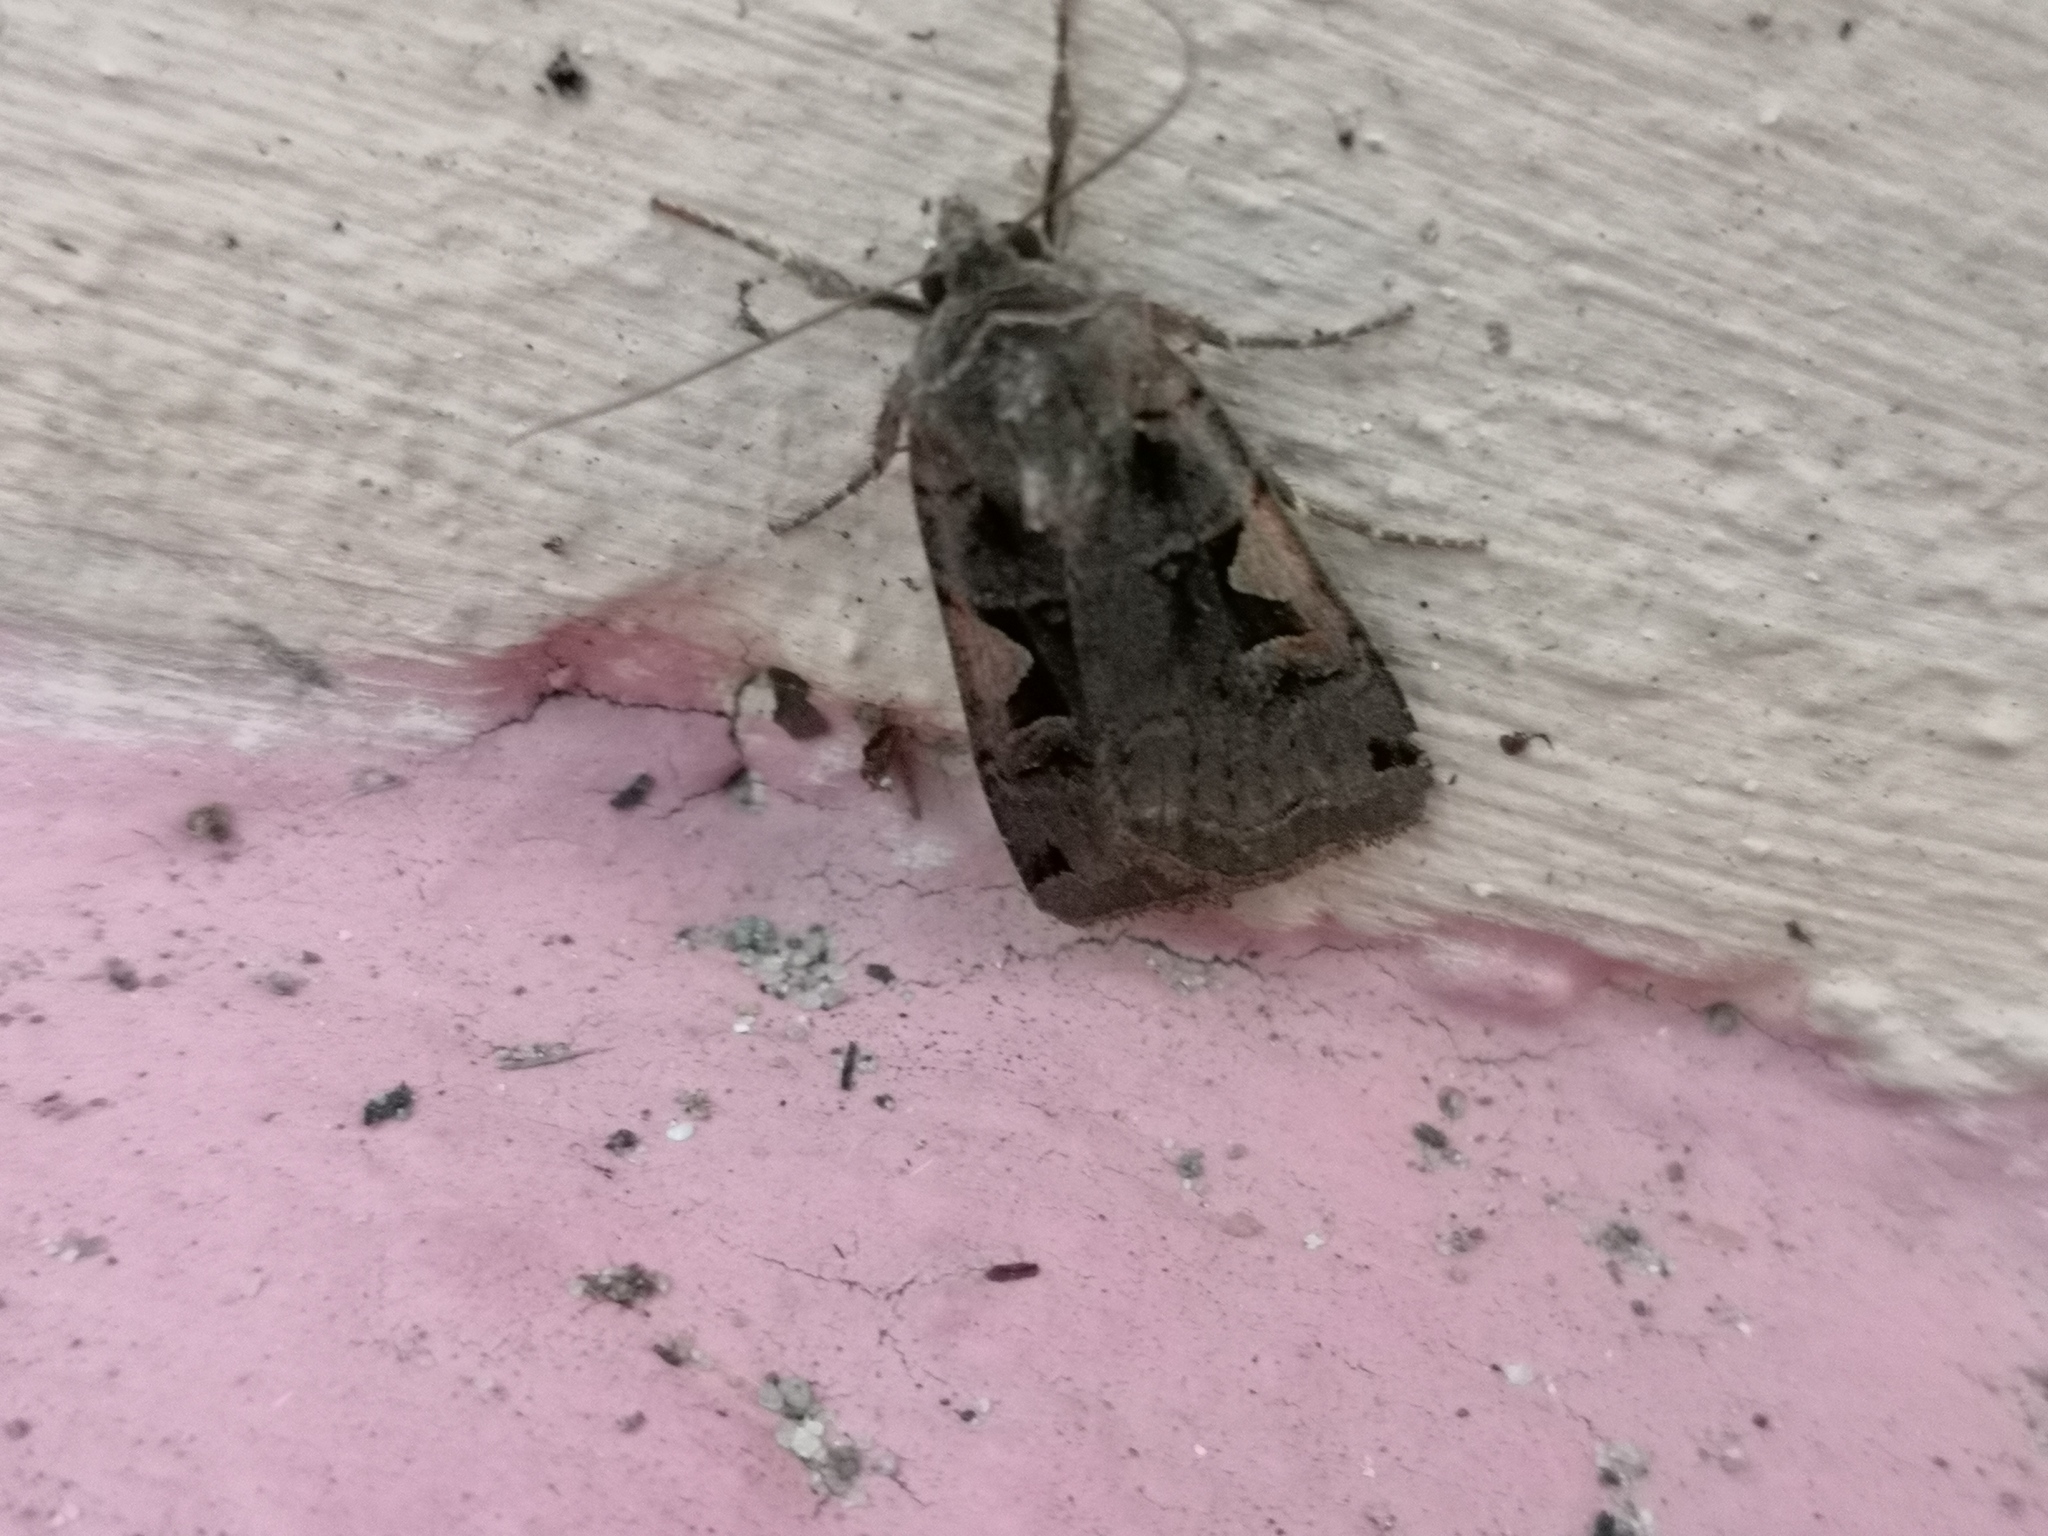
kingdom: Animalia
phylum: Arthropoda
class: Insecta
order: Lepidoptera
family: Noctuidae
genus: Xestia
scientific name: Xestia c-nigrum
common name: Setaceous hebrew character
